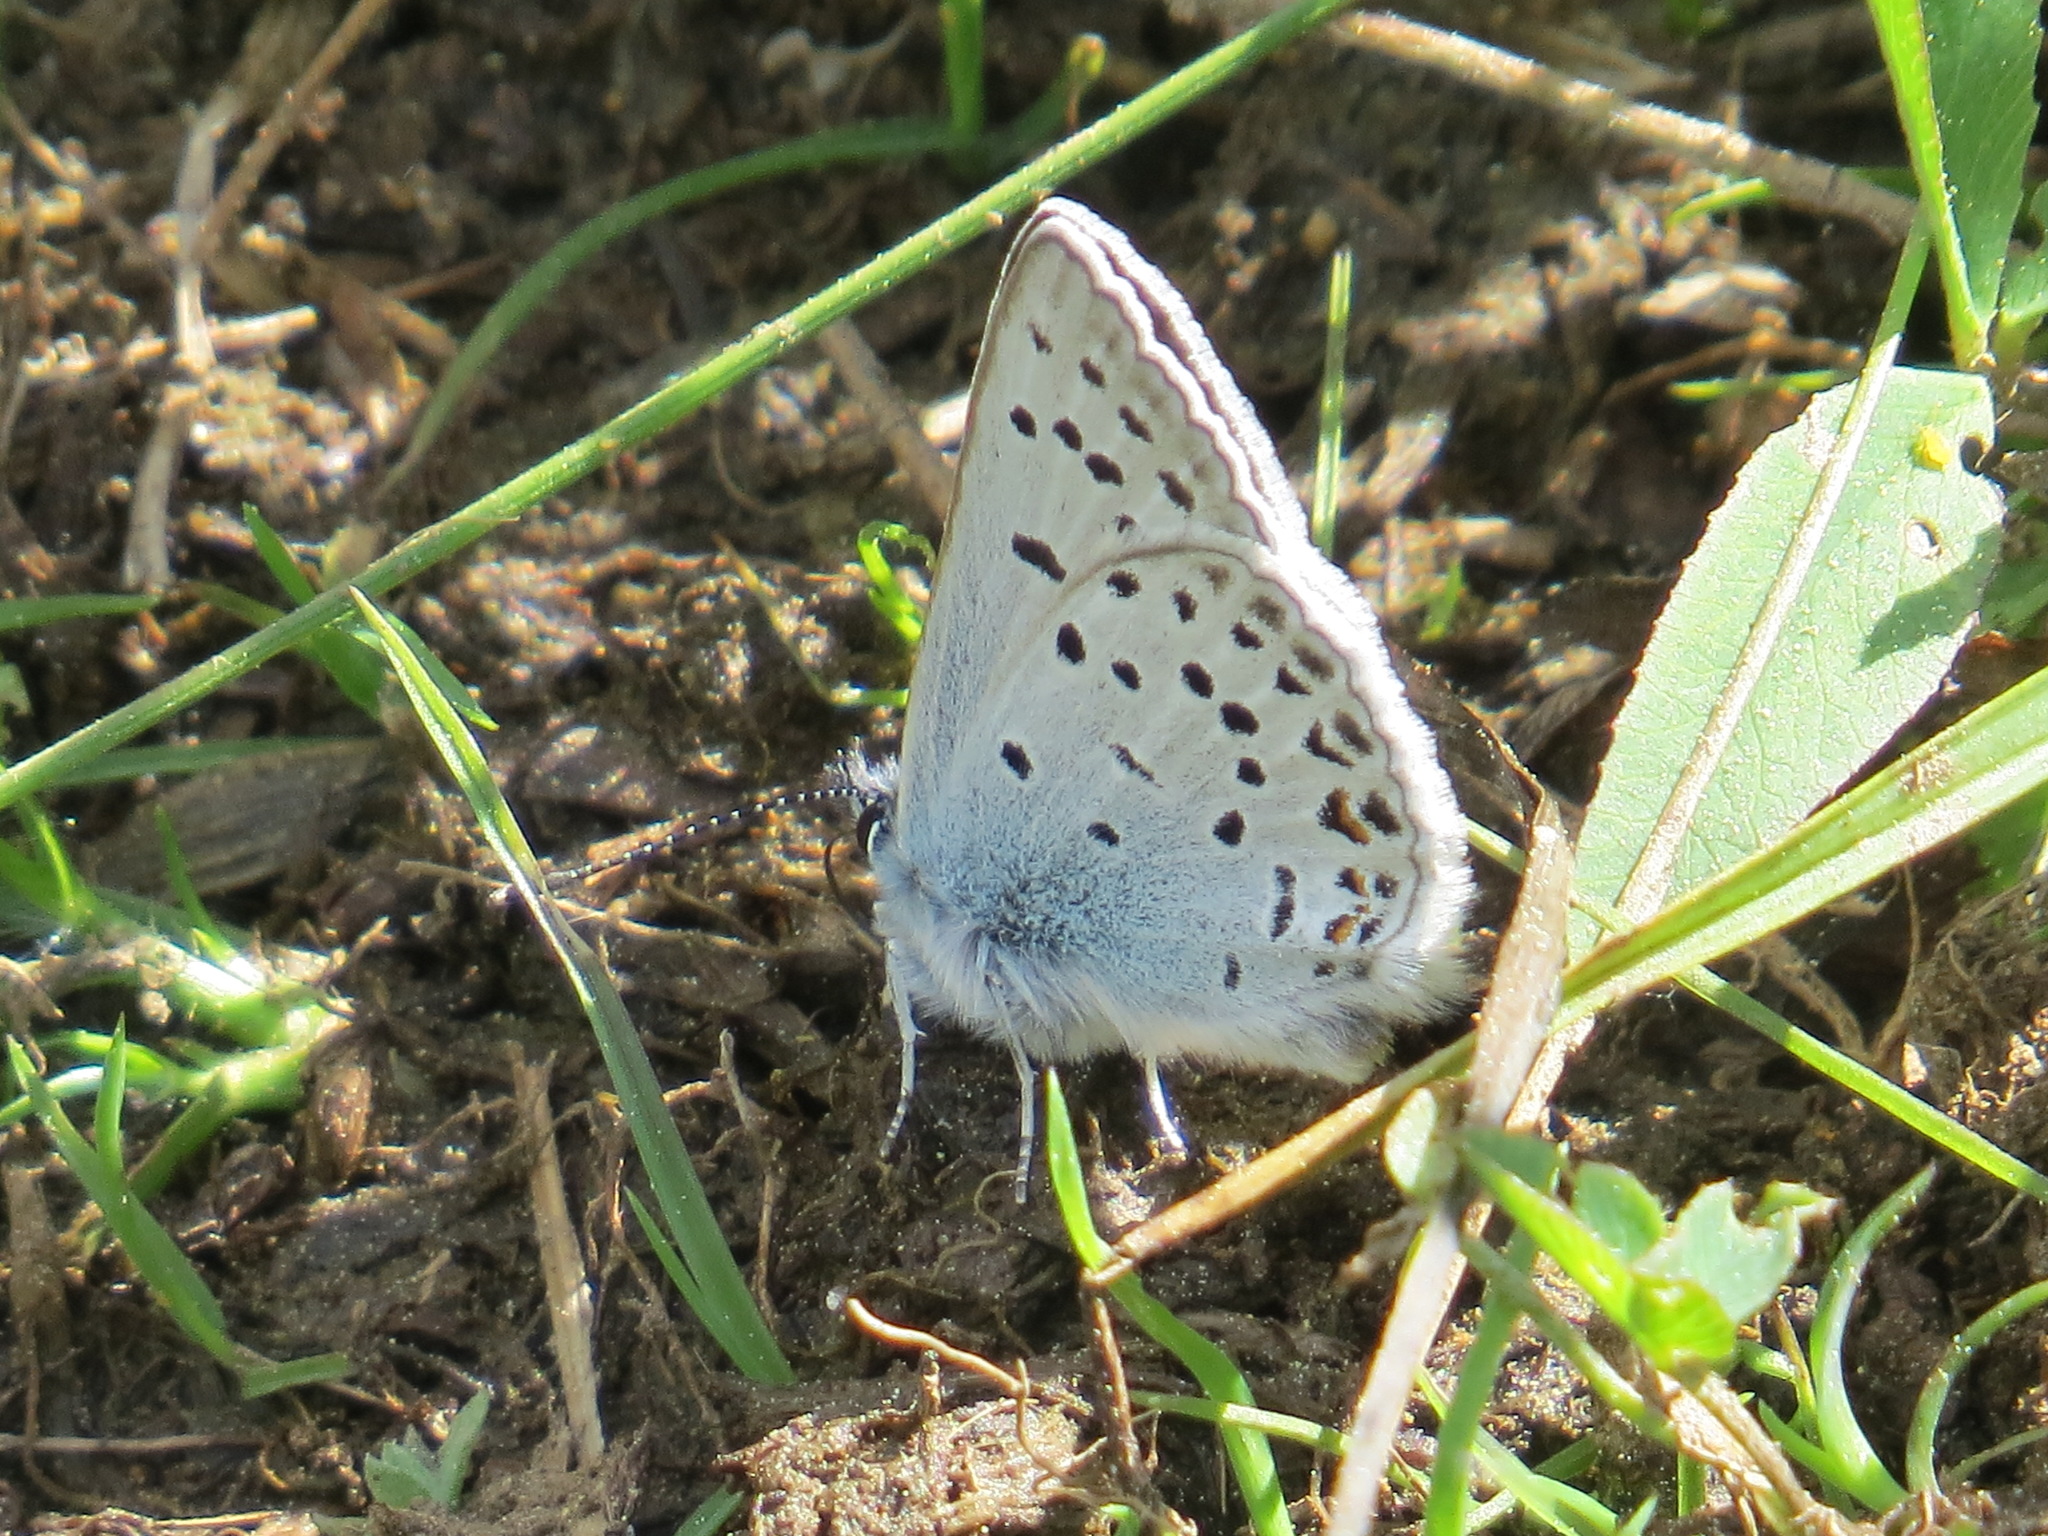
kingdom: Animalia
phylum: Arthropoda
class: Insecta
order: Lepidoptera
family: Lycaenidae
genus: Icaricia
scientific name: Icaricia saepiolus
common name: Greenish blue
